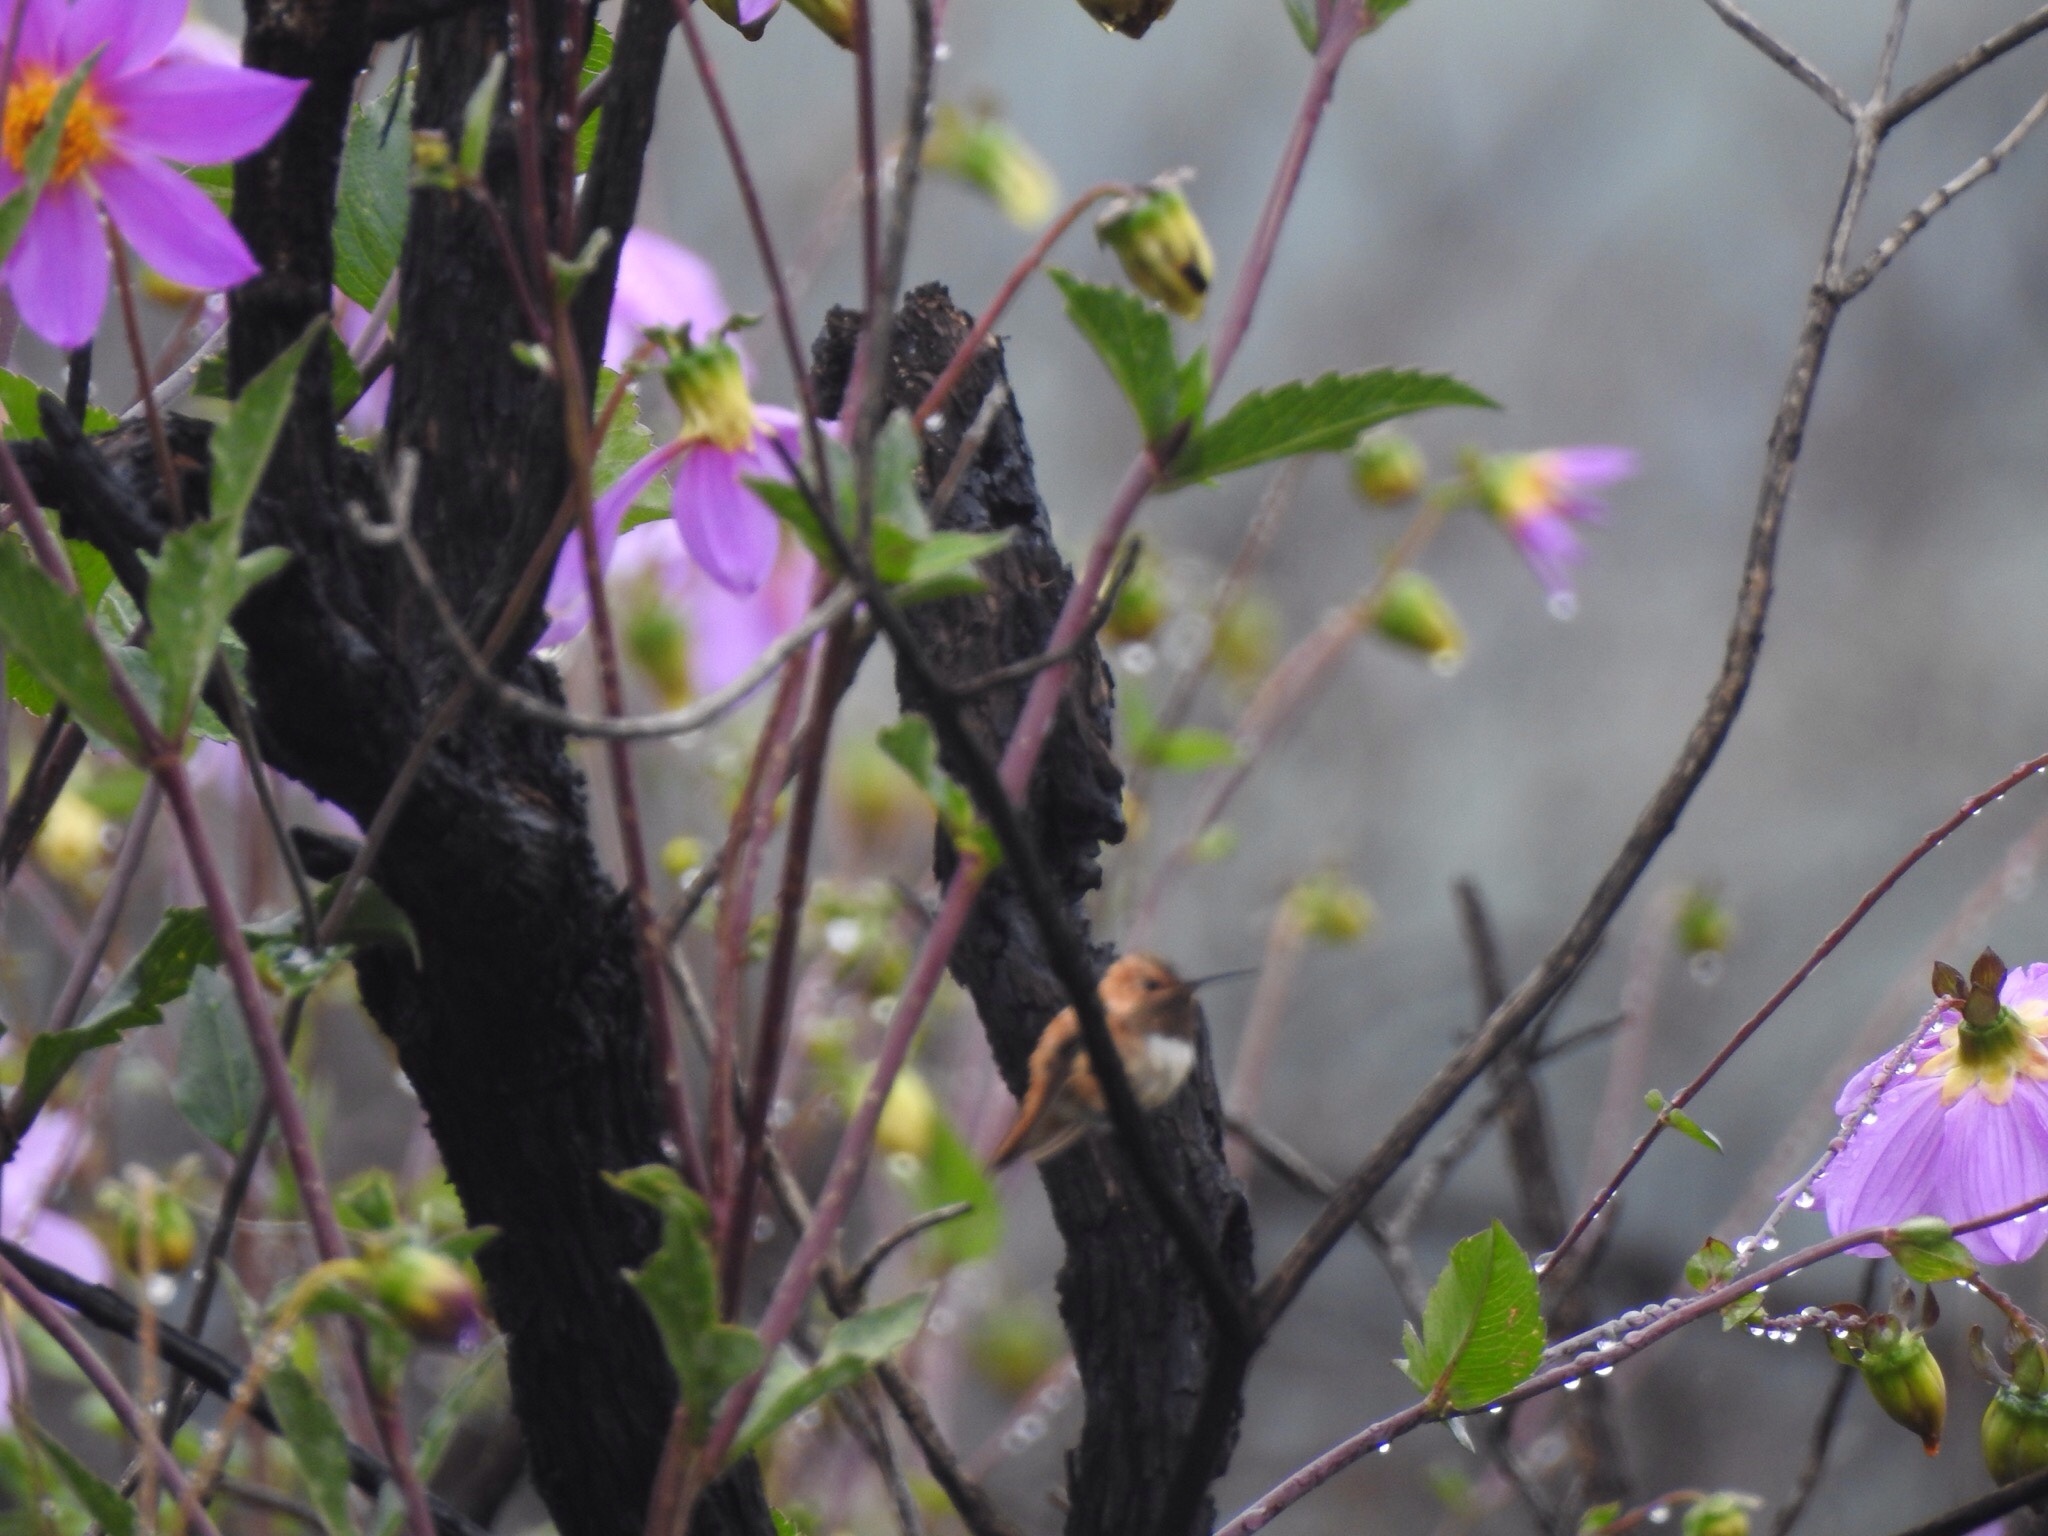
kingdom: Animalia
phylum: Chordata
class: Aves
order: Apodiformes
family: Trochilidae
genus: Selasphorus
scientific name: Selasphorus rufus
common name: Rufous hummingbird
